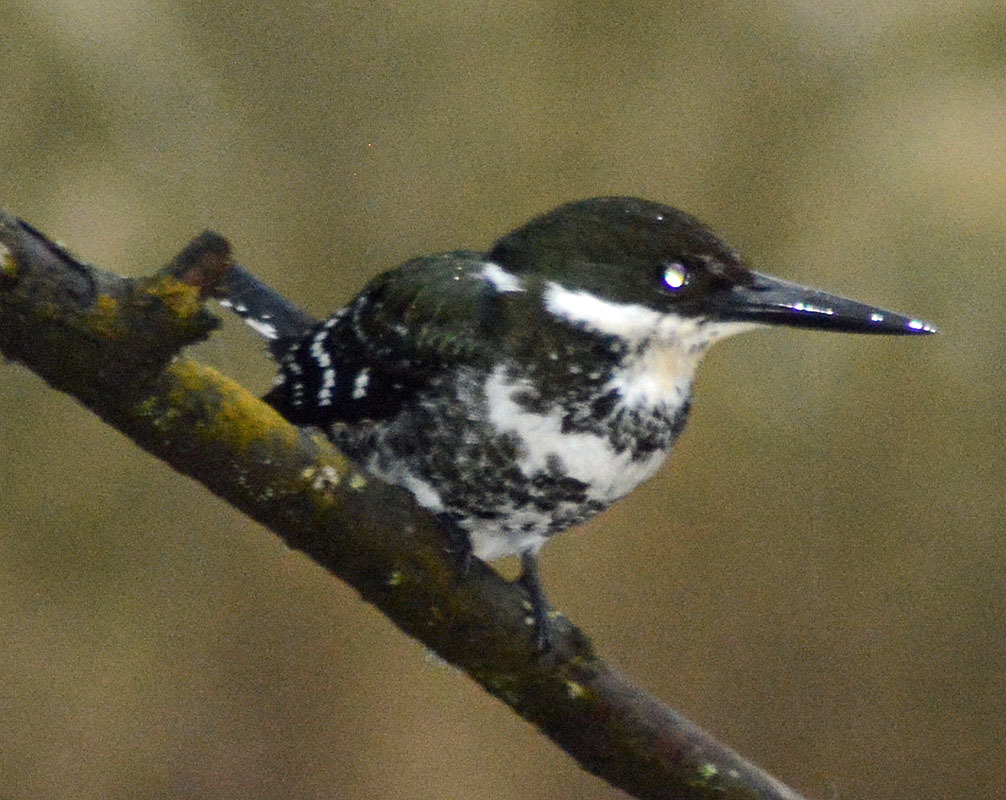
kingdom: Animalia
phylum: Chordata
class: Aves
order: Coraciiformes
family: Alcedinidae
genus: Chloroceryle
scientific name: Chloroceryle americana
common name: Green kingfisher
